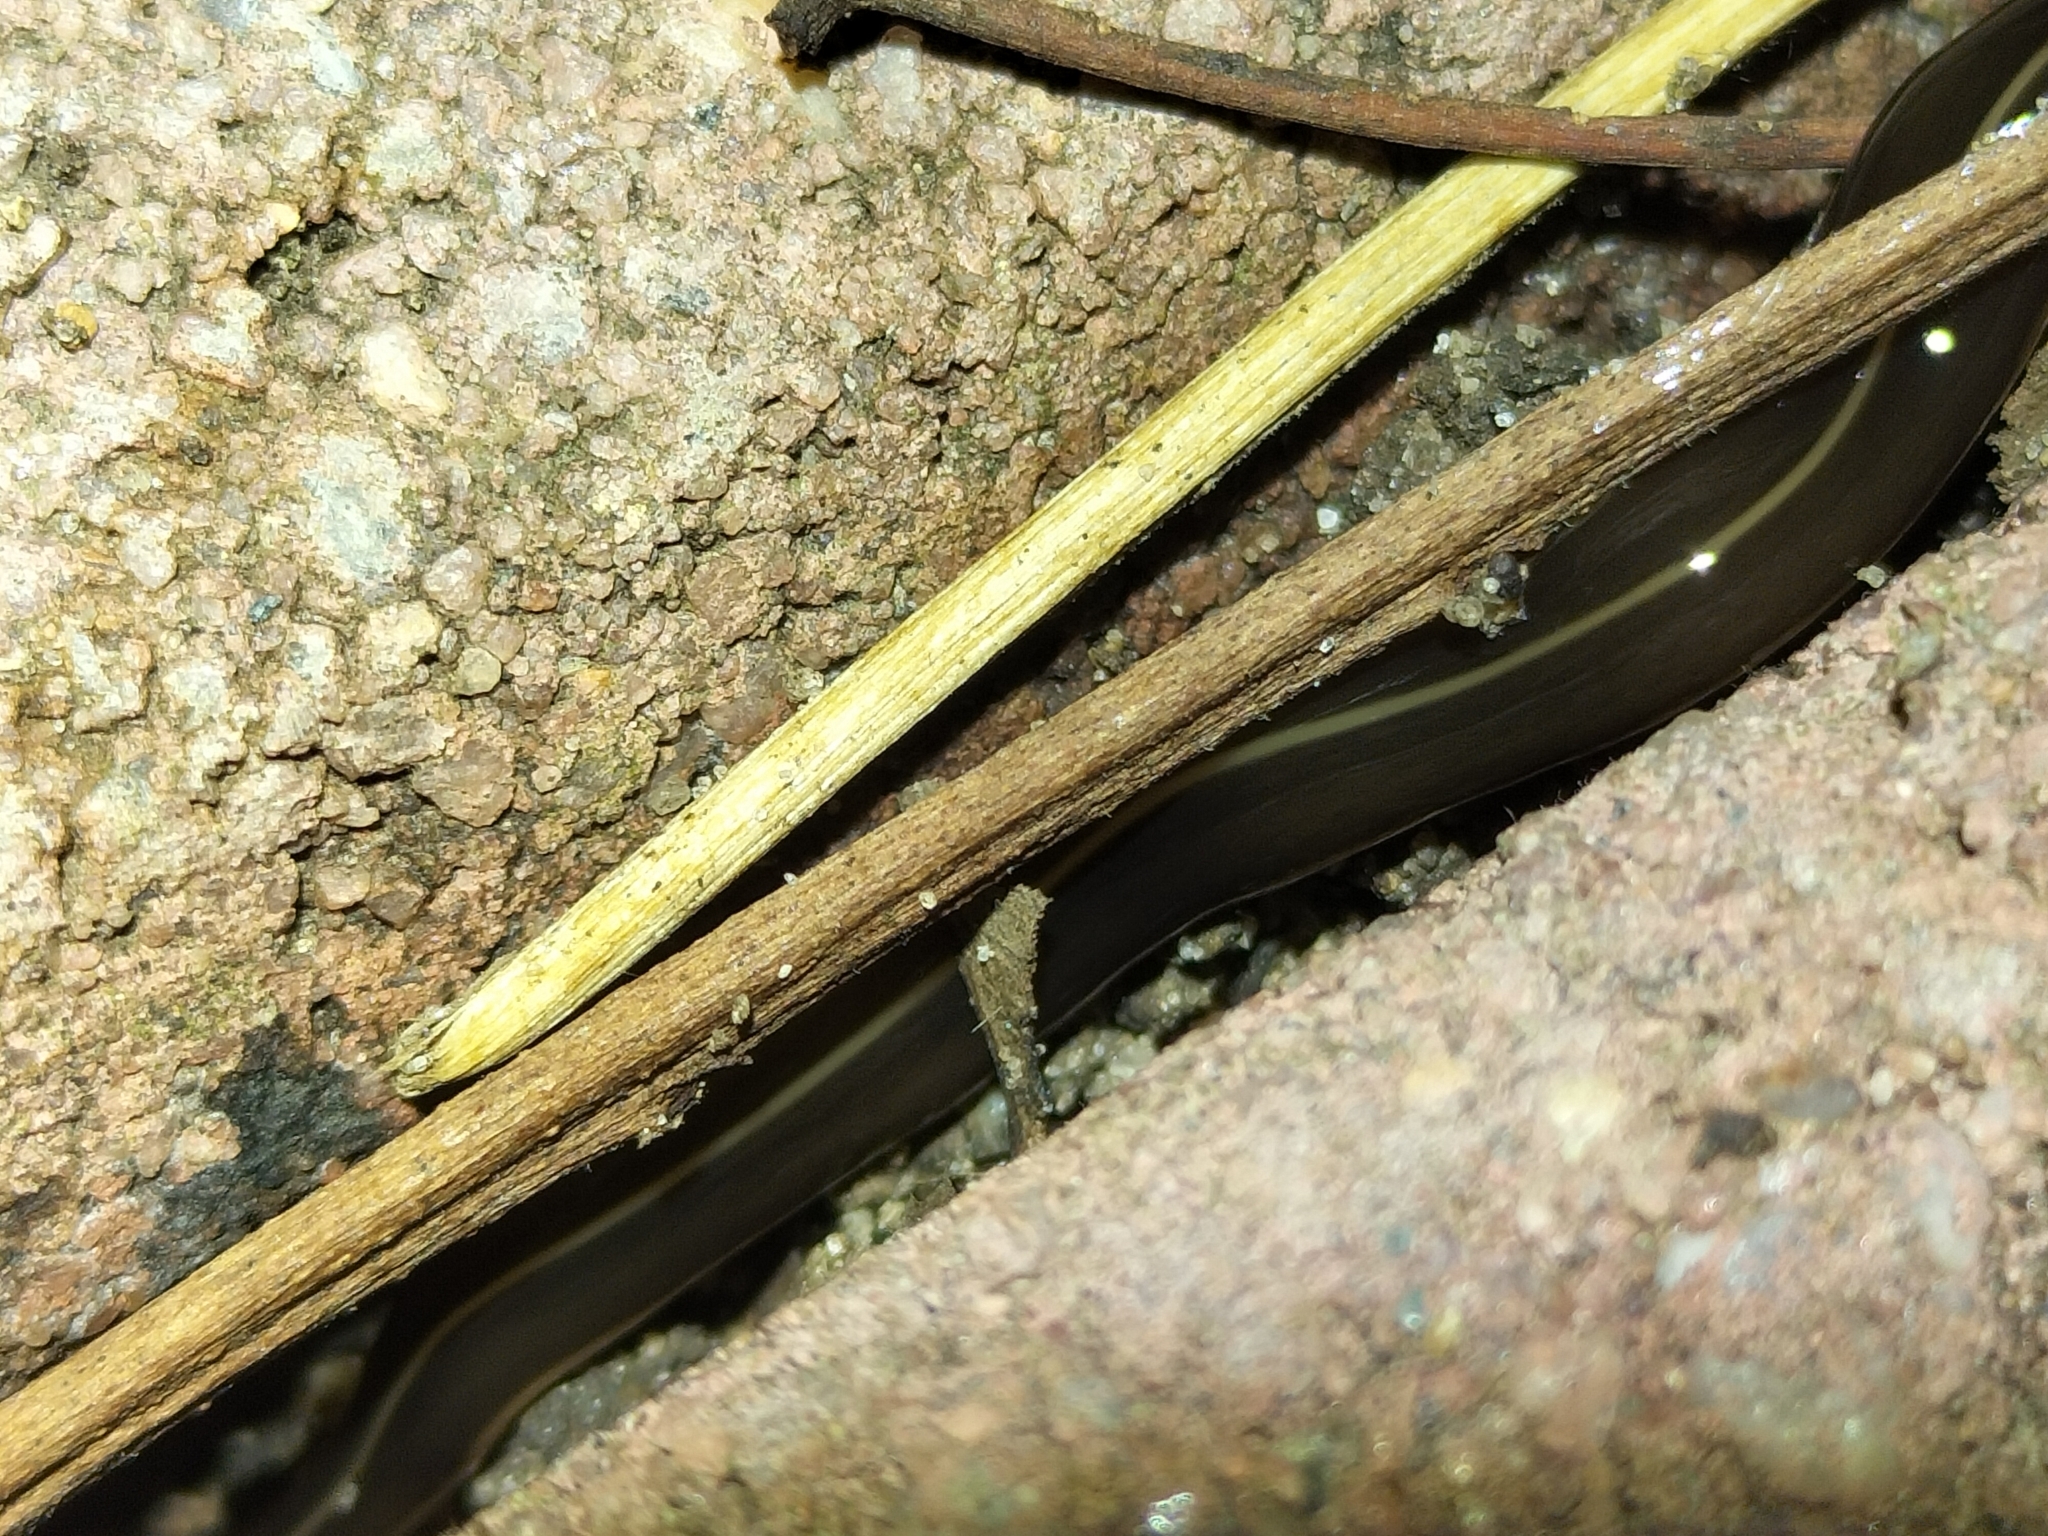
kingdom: Animalia
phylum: Platyhelminthes
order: Tricladida
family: Geoplanidae
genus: Platydemus
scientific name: Platydemus manokwari
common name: New guinea flatworm
